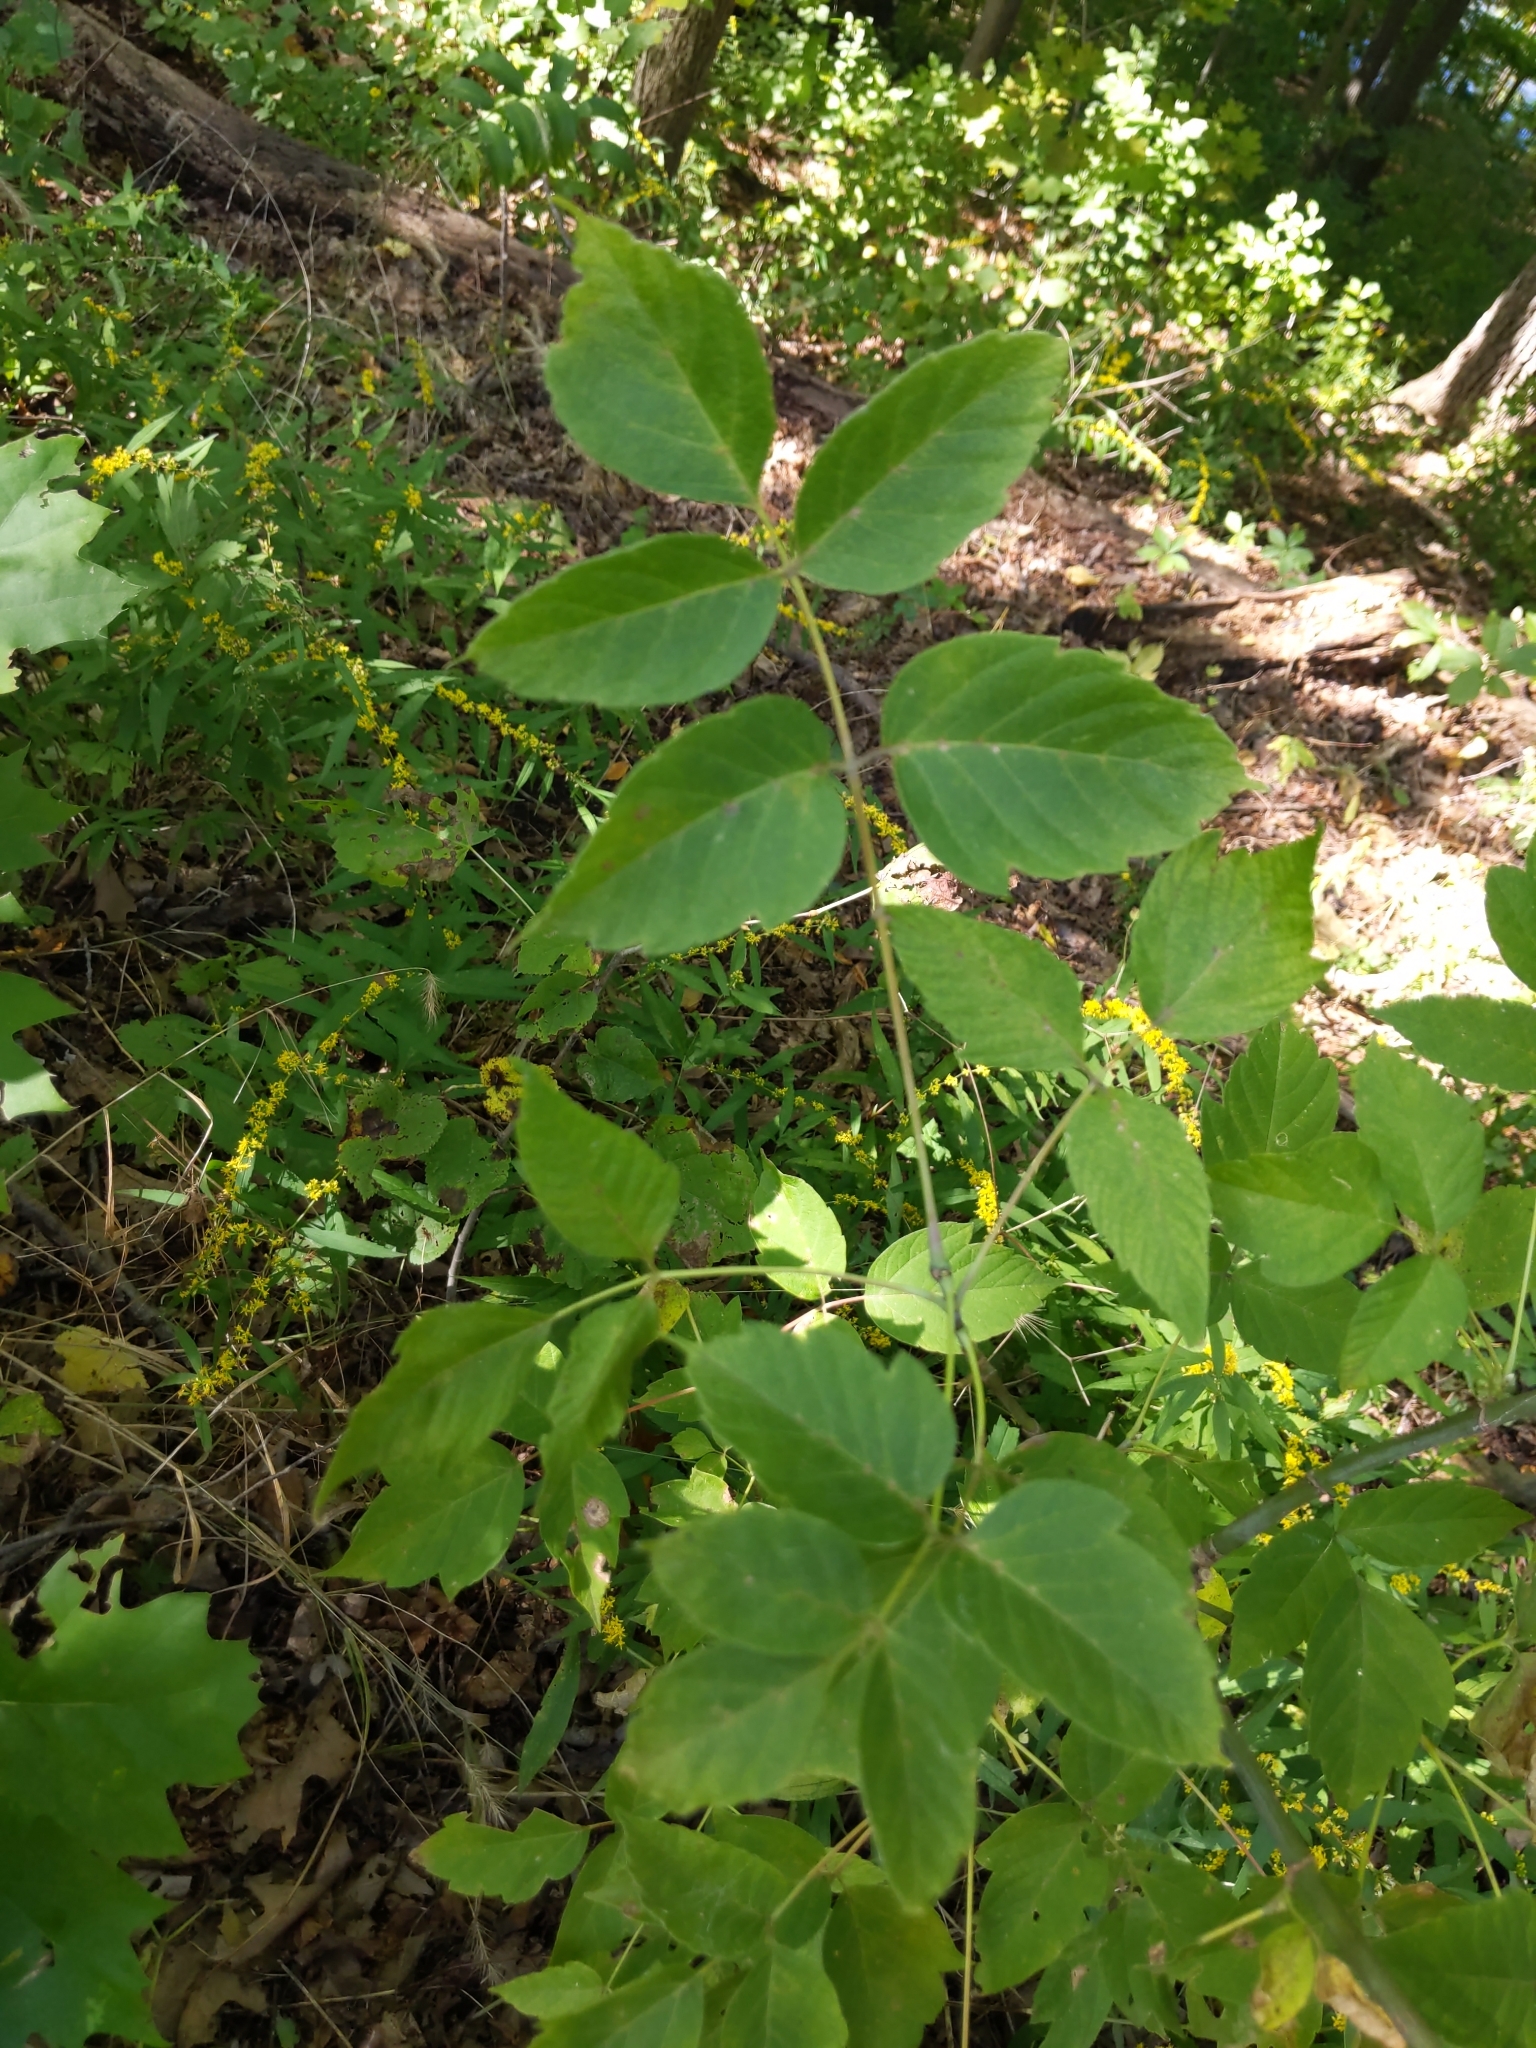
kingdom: Plantae
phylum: Tracheophyta
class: Magnoliopsida
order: Sapindales
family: Sapindaceae
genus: Acer
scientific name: Acer negundo
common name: Ashleaf maple
